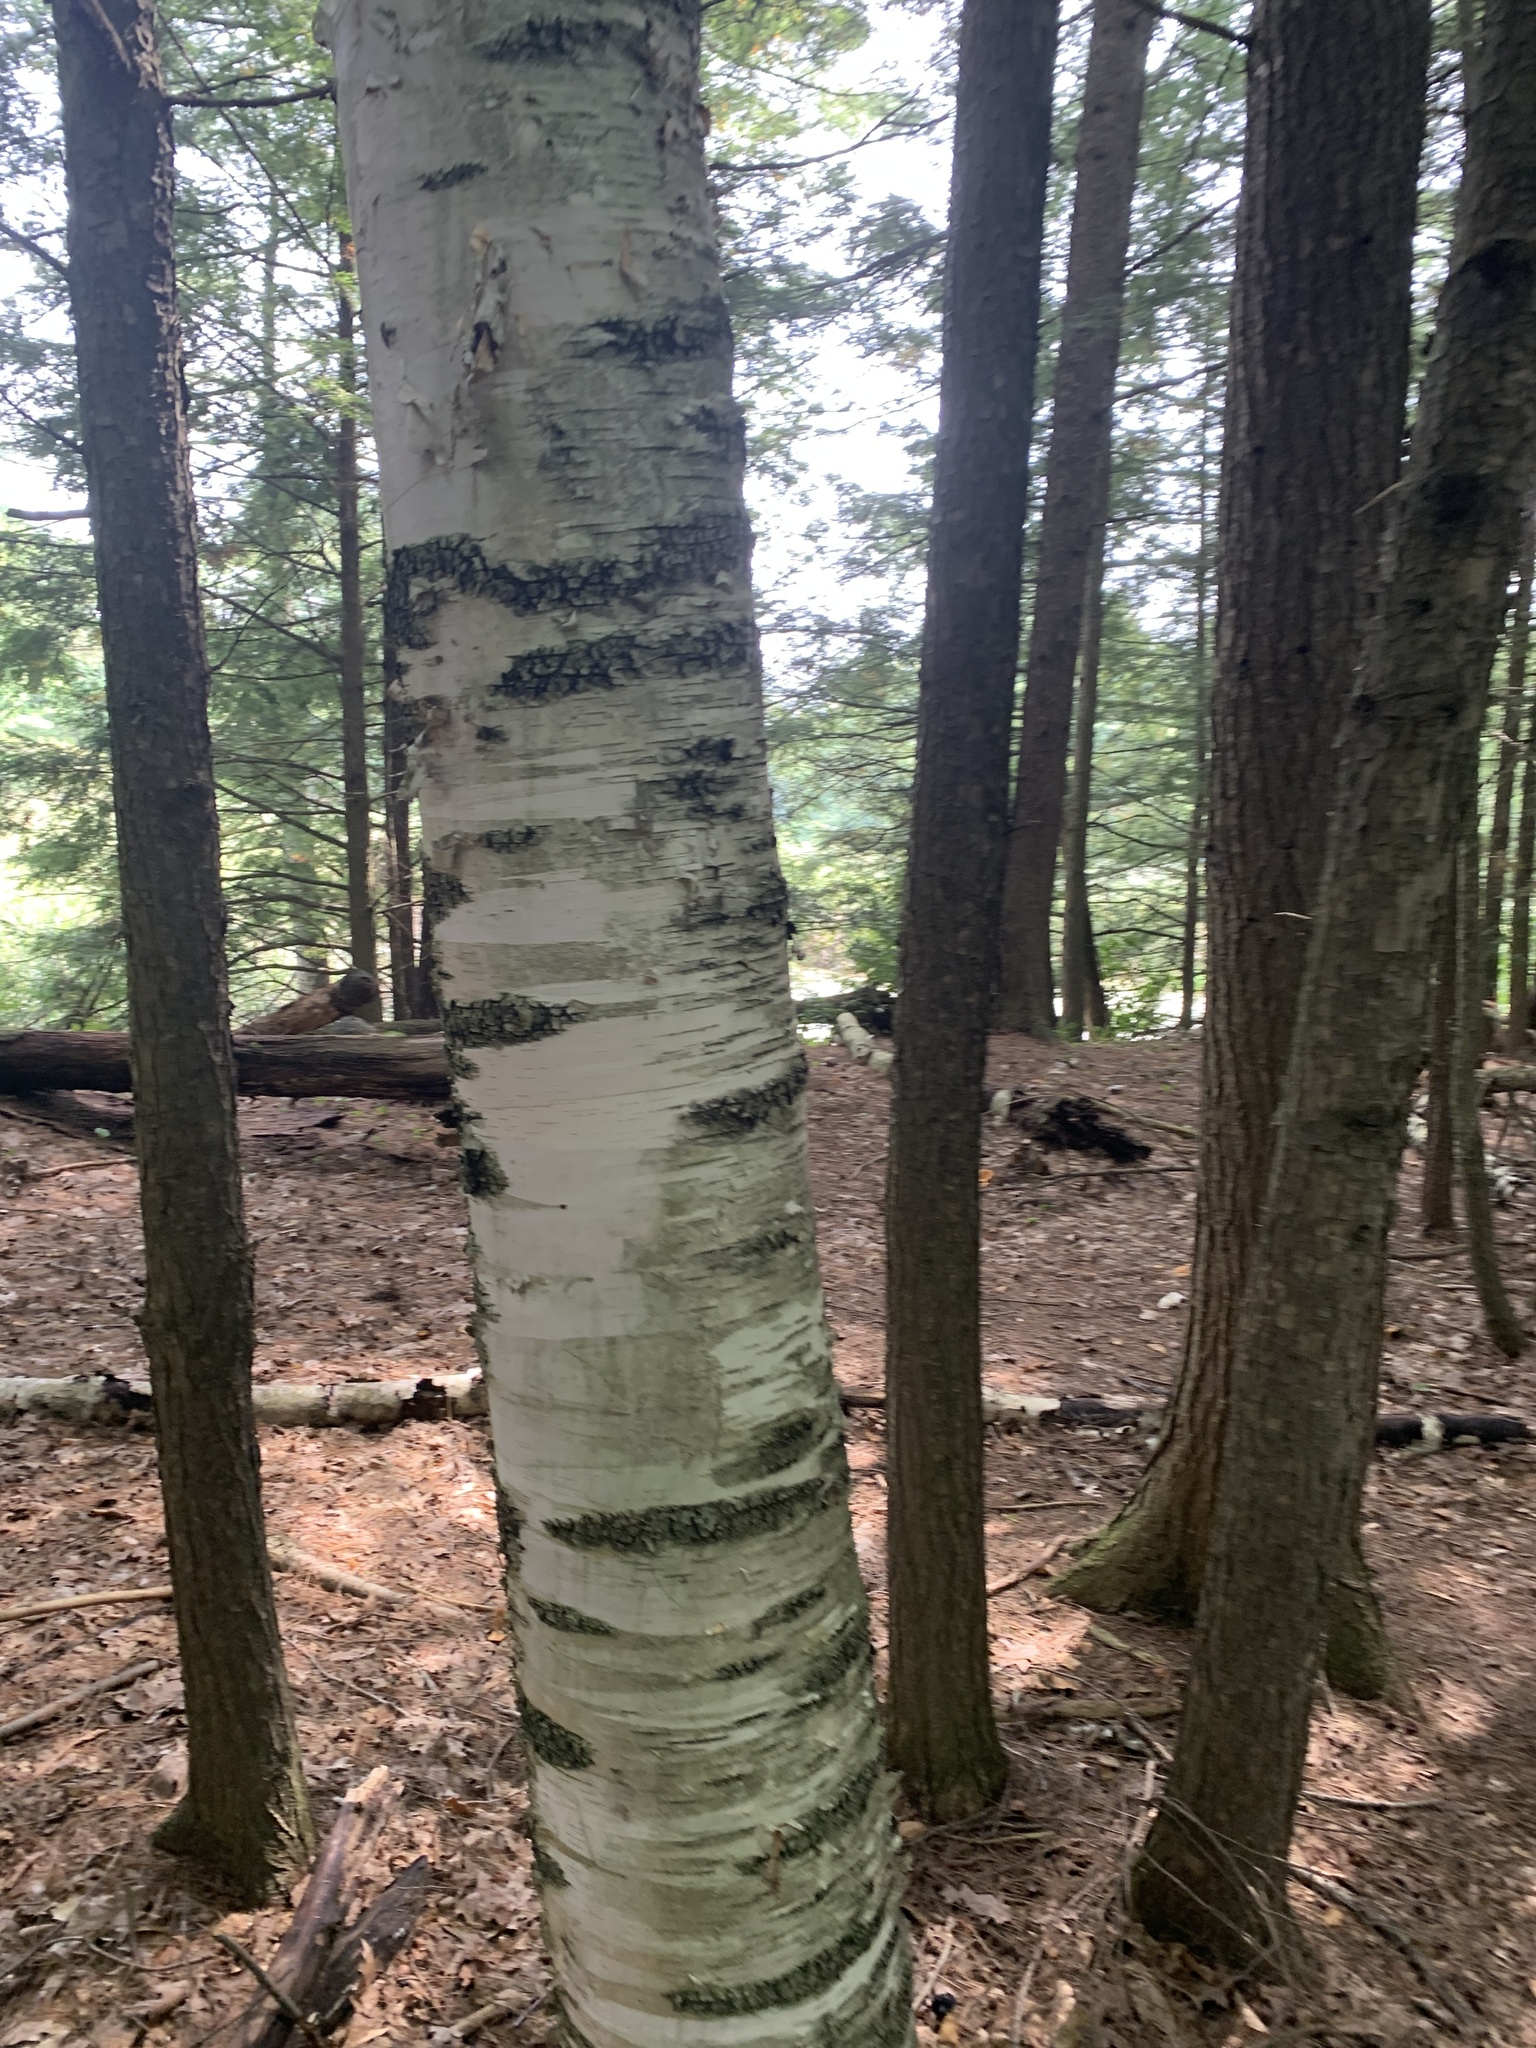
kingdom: Plantae
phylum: Tracheophyta
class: Magnoliopsida
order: Fagales
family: Betulaceae
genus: Betula
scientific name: Betula papyrifera
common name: Paper birch
